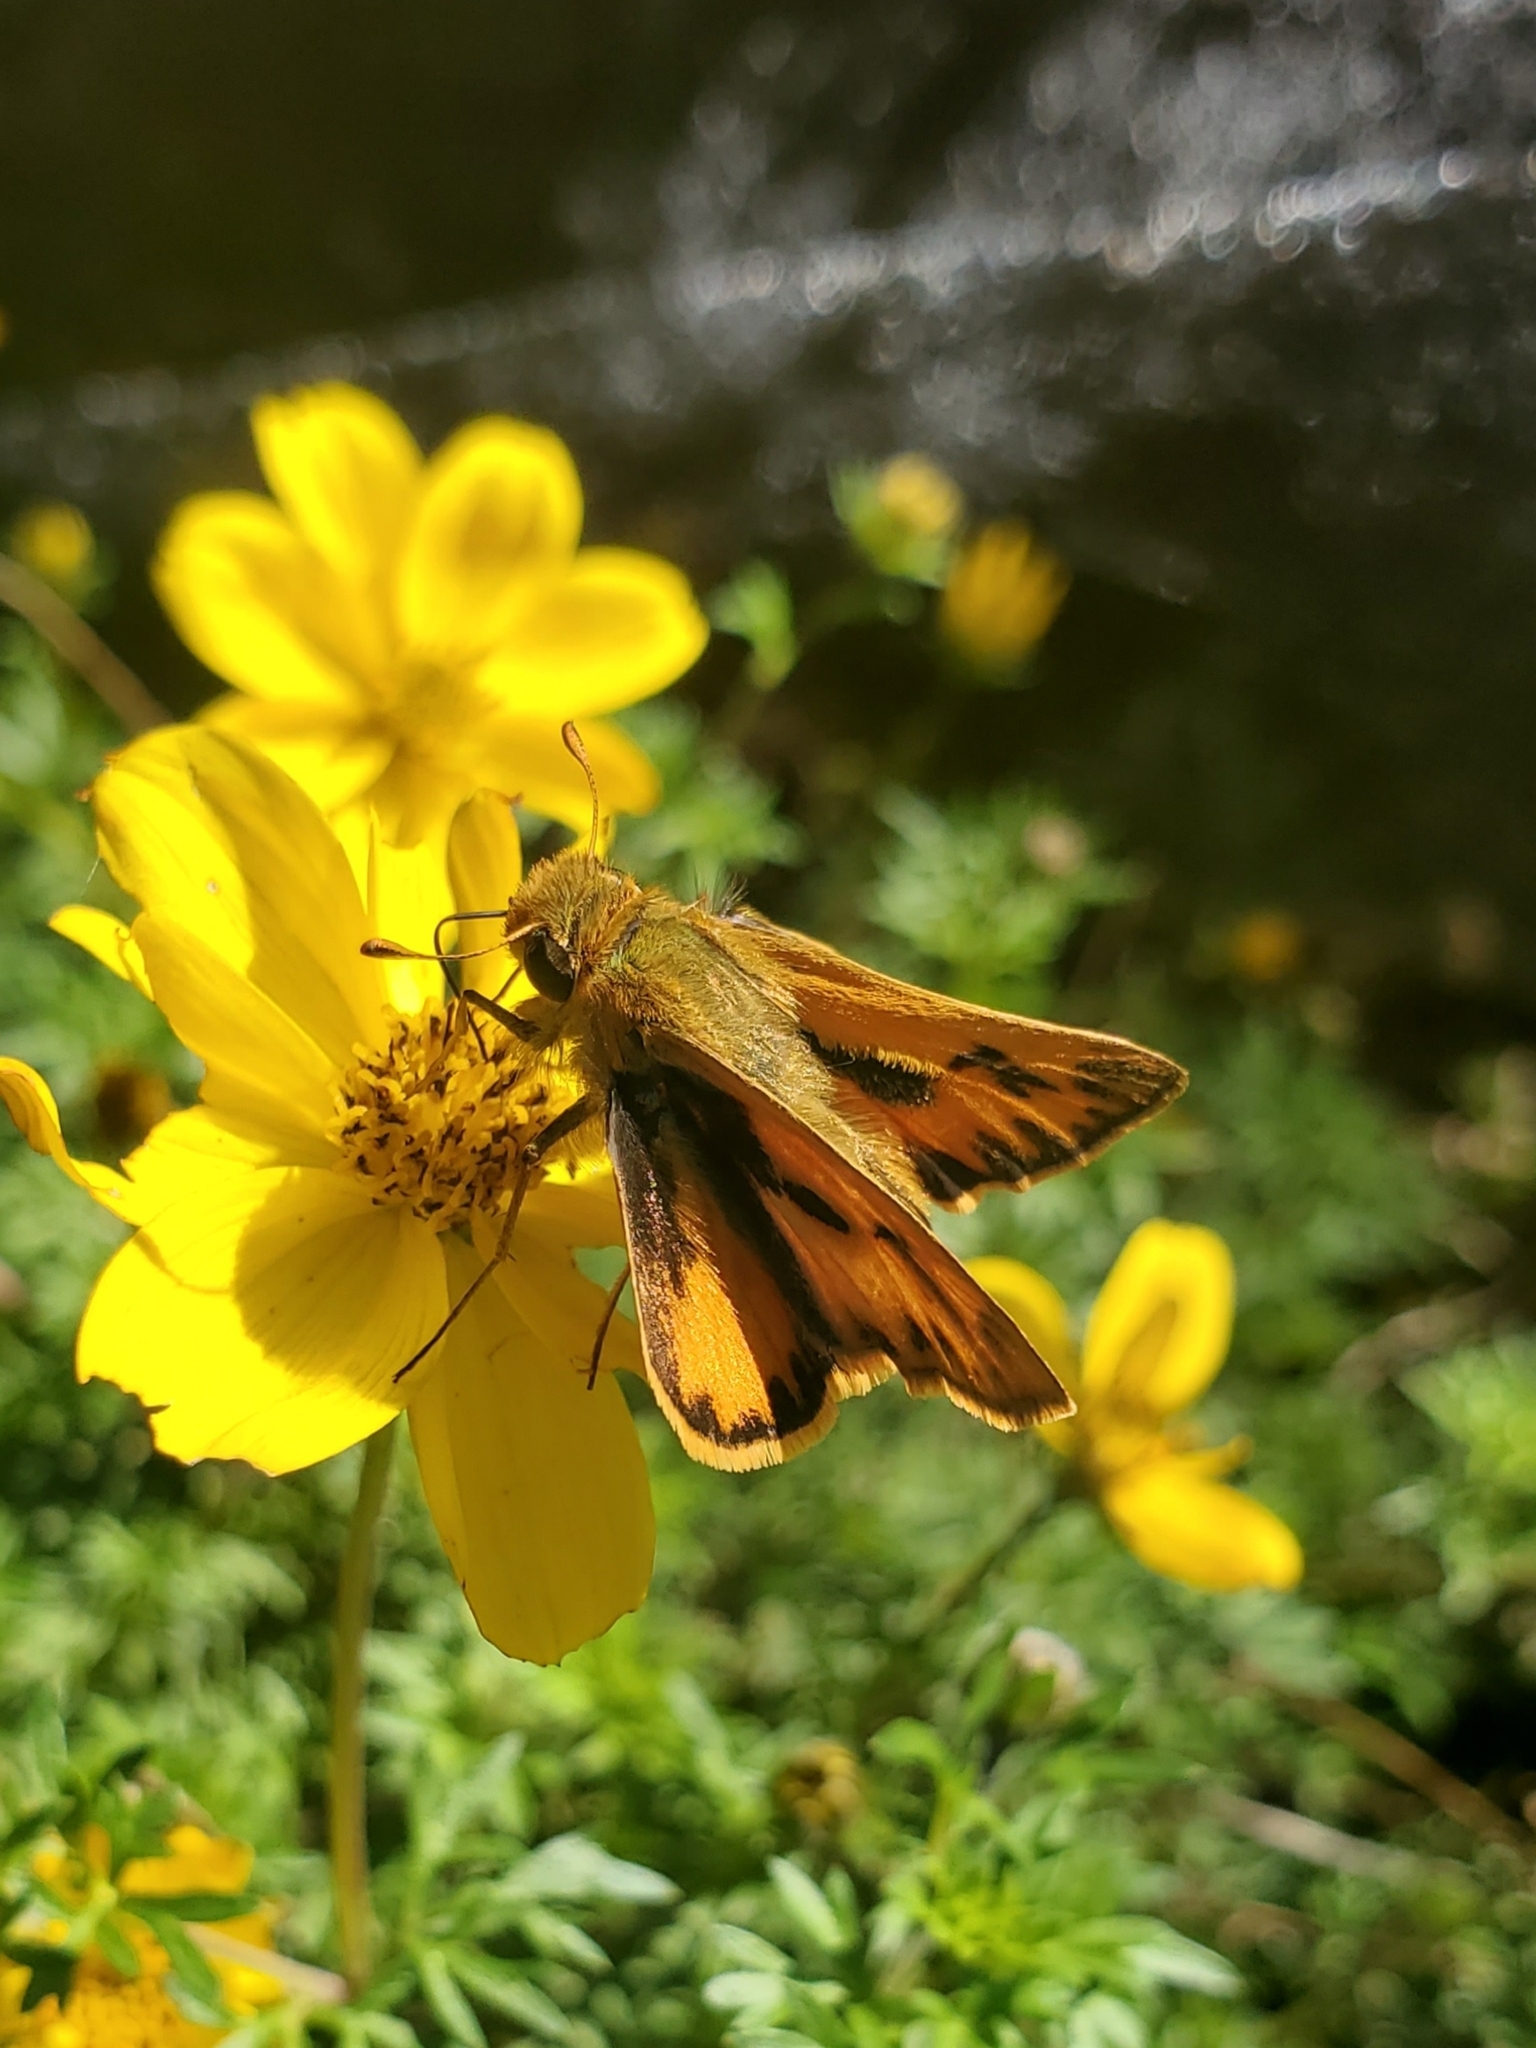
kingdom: Animalia
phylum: Arthropoda
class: Insecta
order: Lepidoptera
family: Hesperiidae
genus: Hylephila
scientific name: Hylephila phyleus
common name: Fiery skipper
